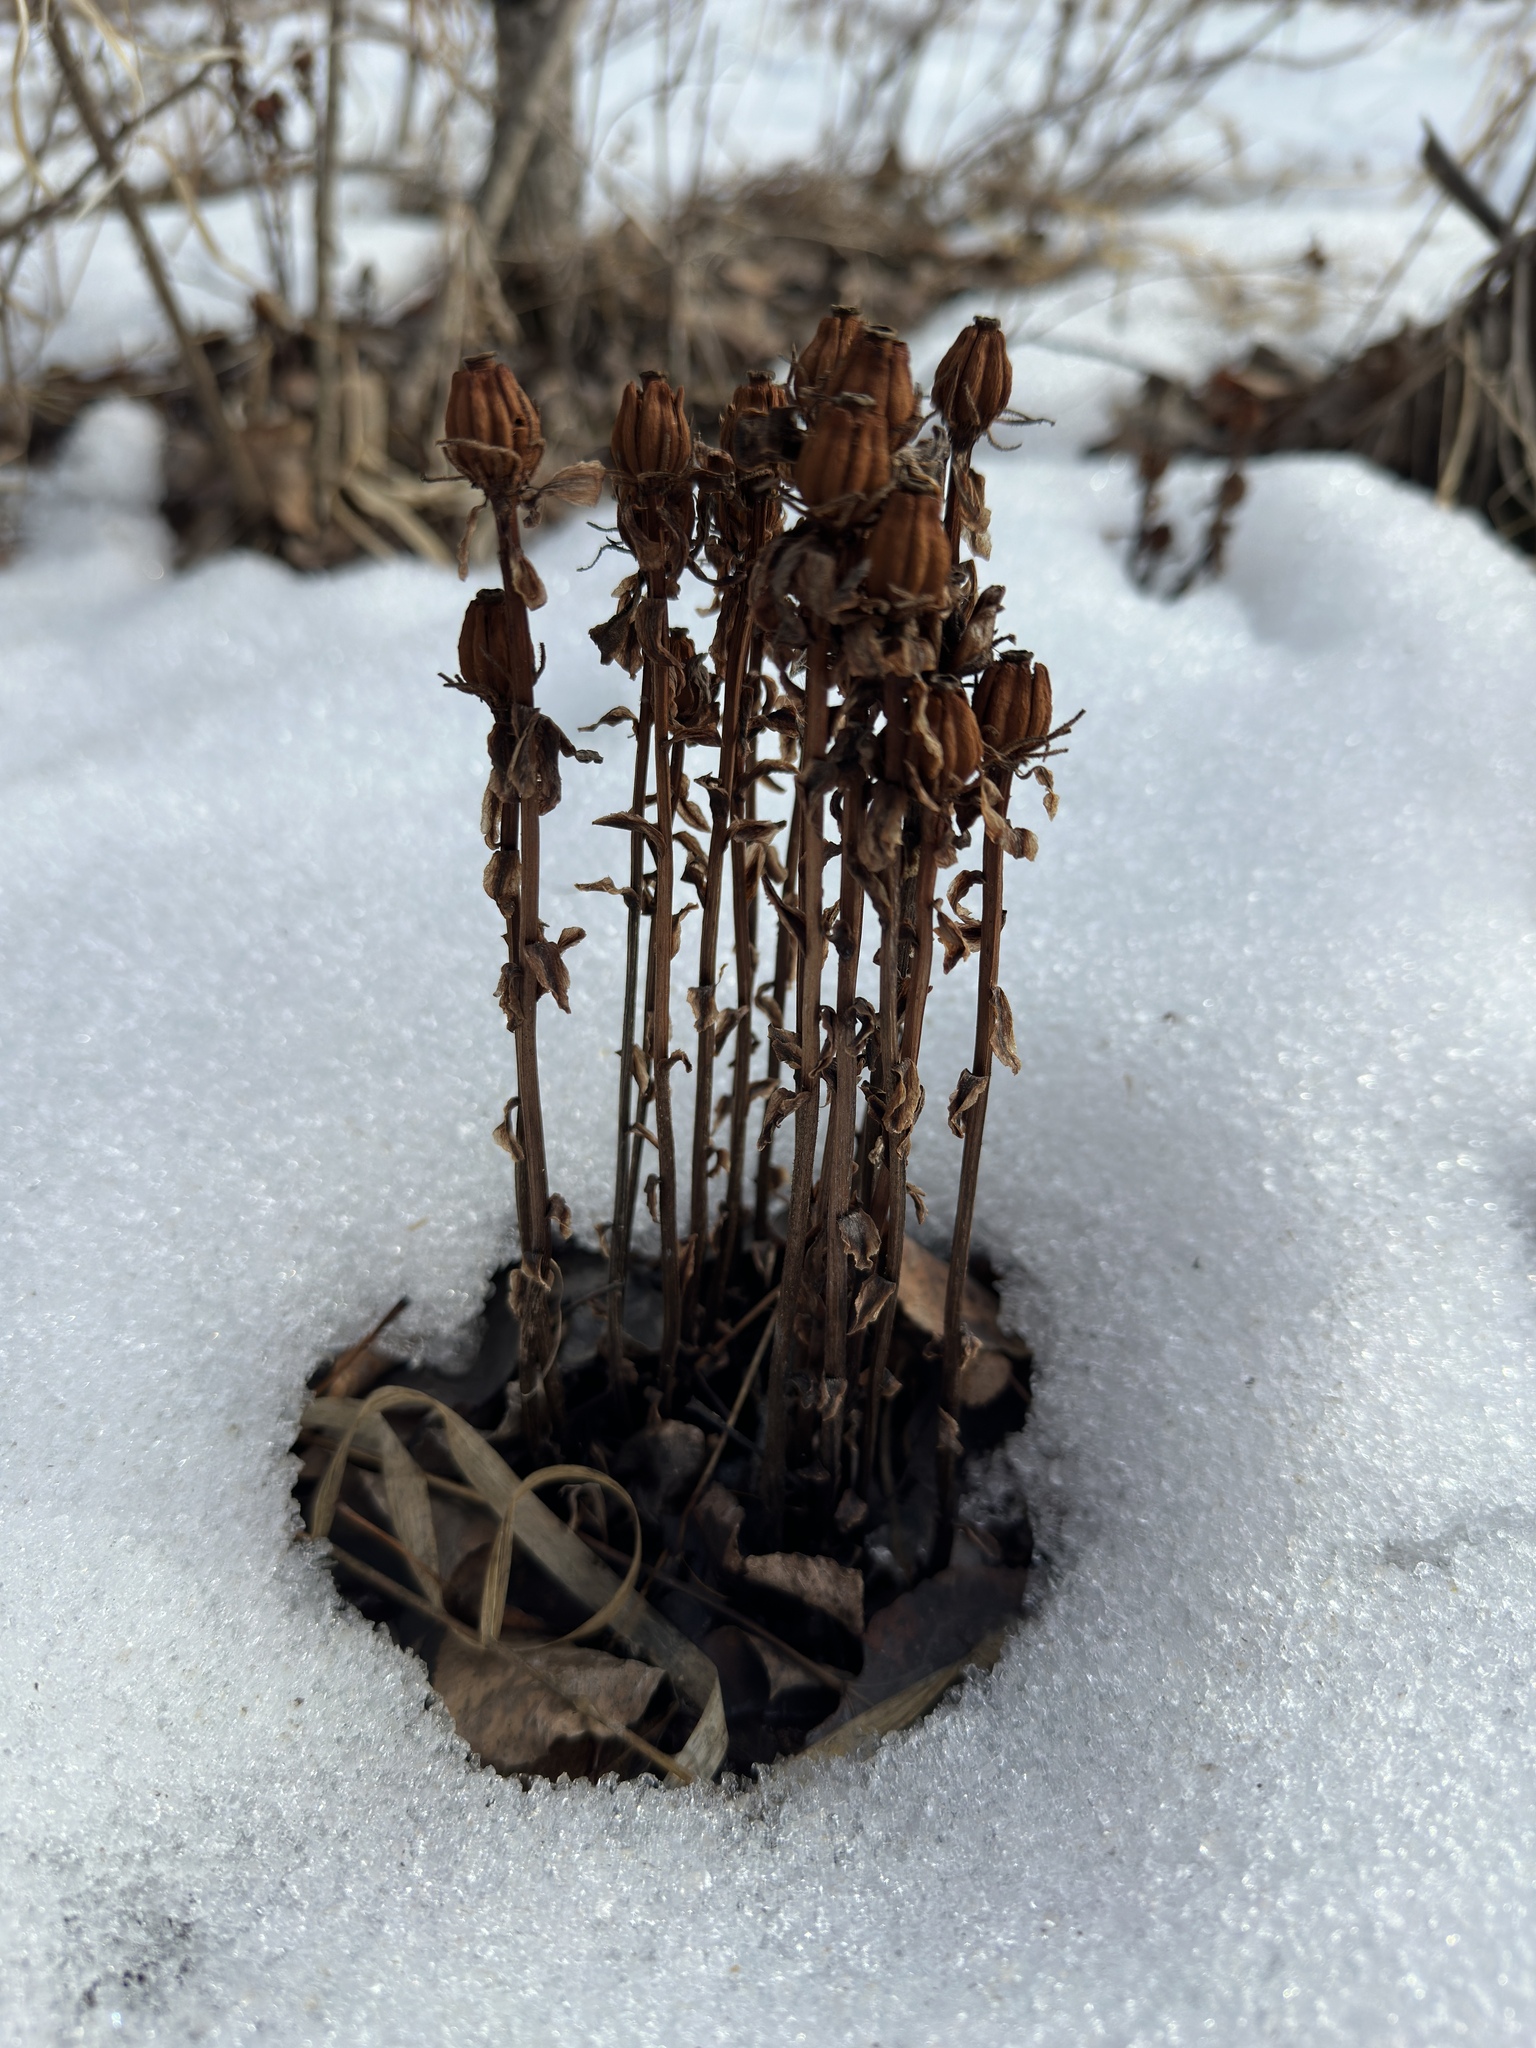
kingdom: Plantae
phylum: Tracheophyta
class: Magnoliopsida
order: Ericales
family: Ericaceae
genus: Monotropa
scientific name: Monotropa uniflora
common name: Convulsion root
